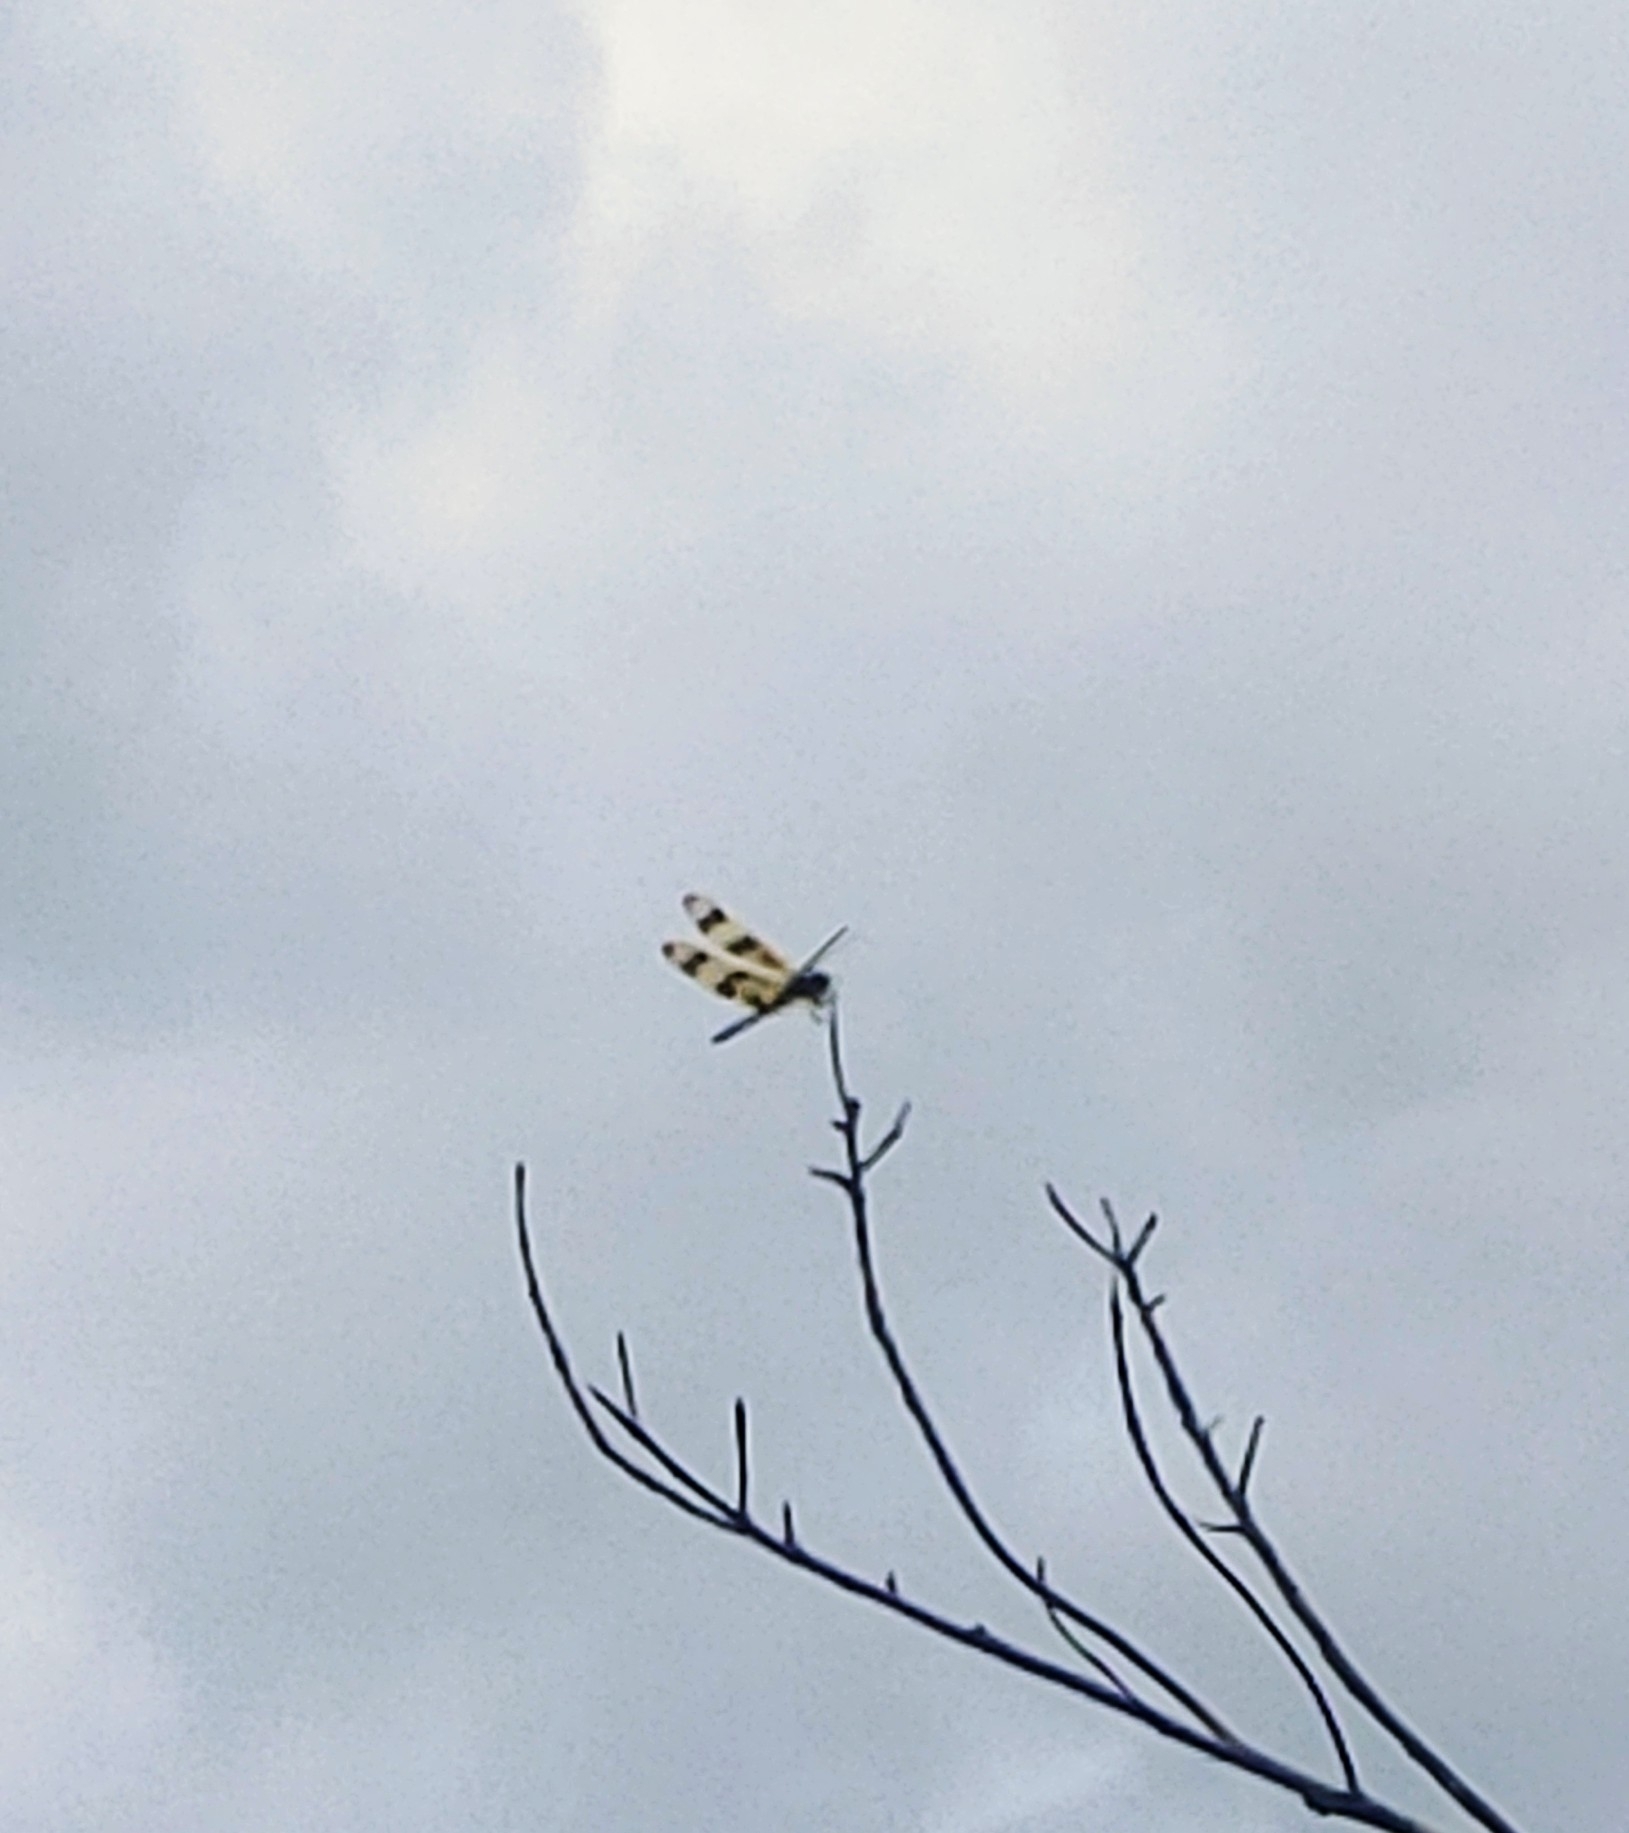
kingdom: Animalia
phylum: Arthropoda
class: Insecta
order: Odonata
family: Libellulidae
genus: Celithemis
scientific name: Celithemis eponina
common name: Halloween pennant
